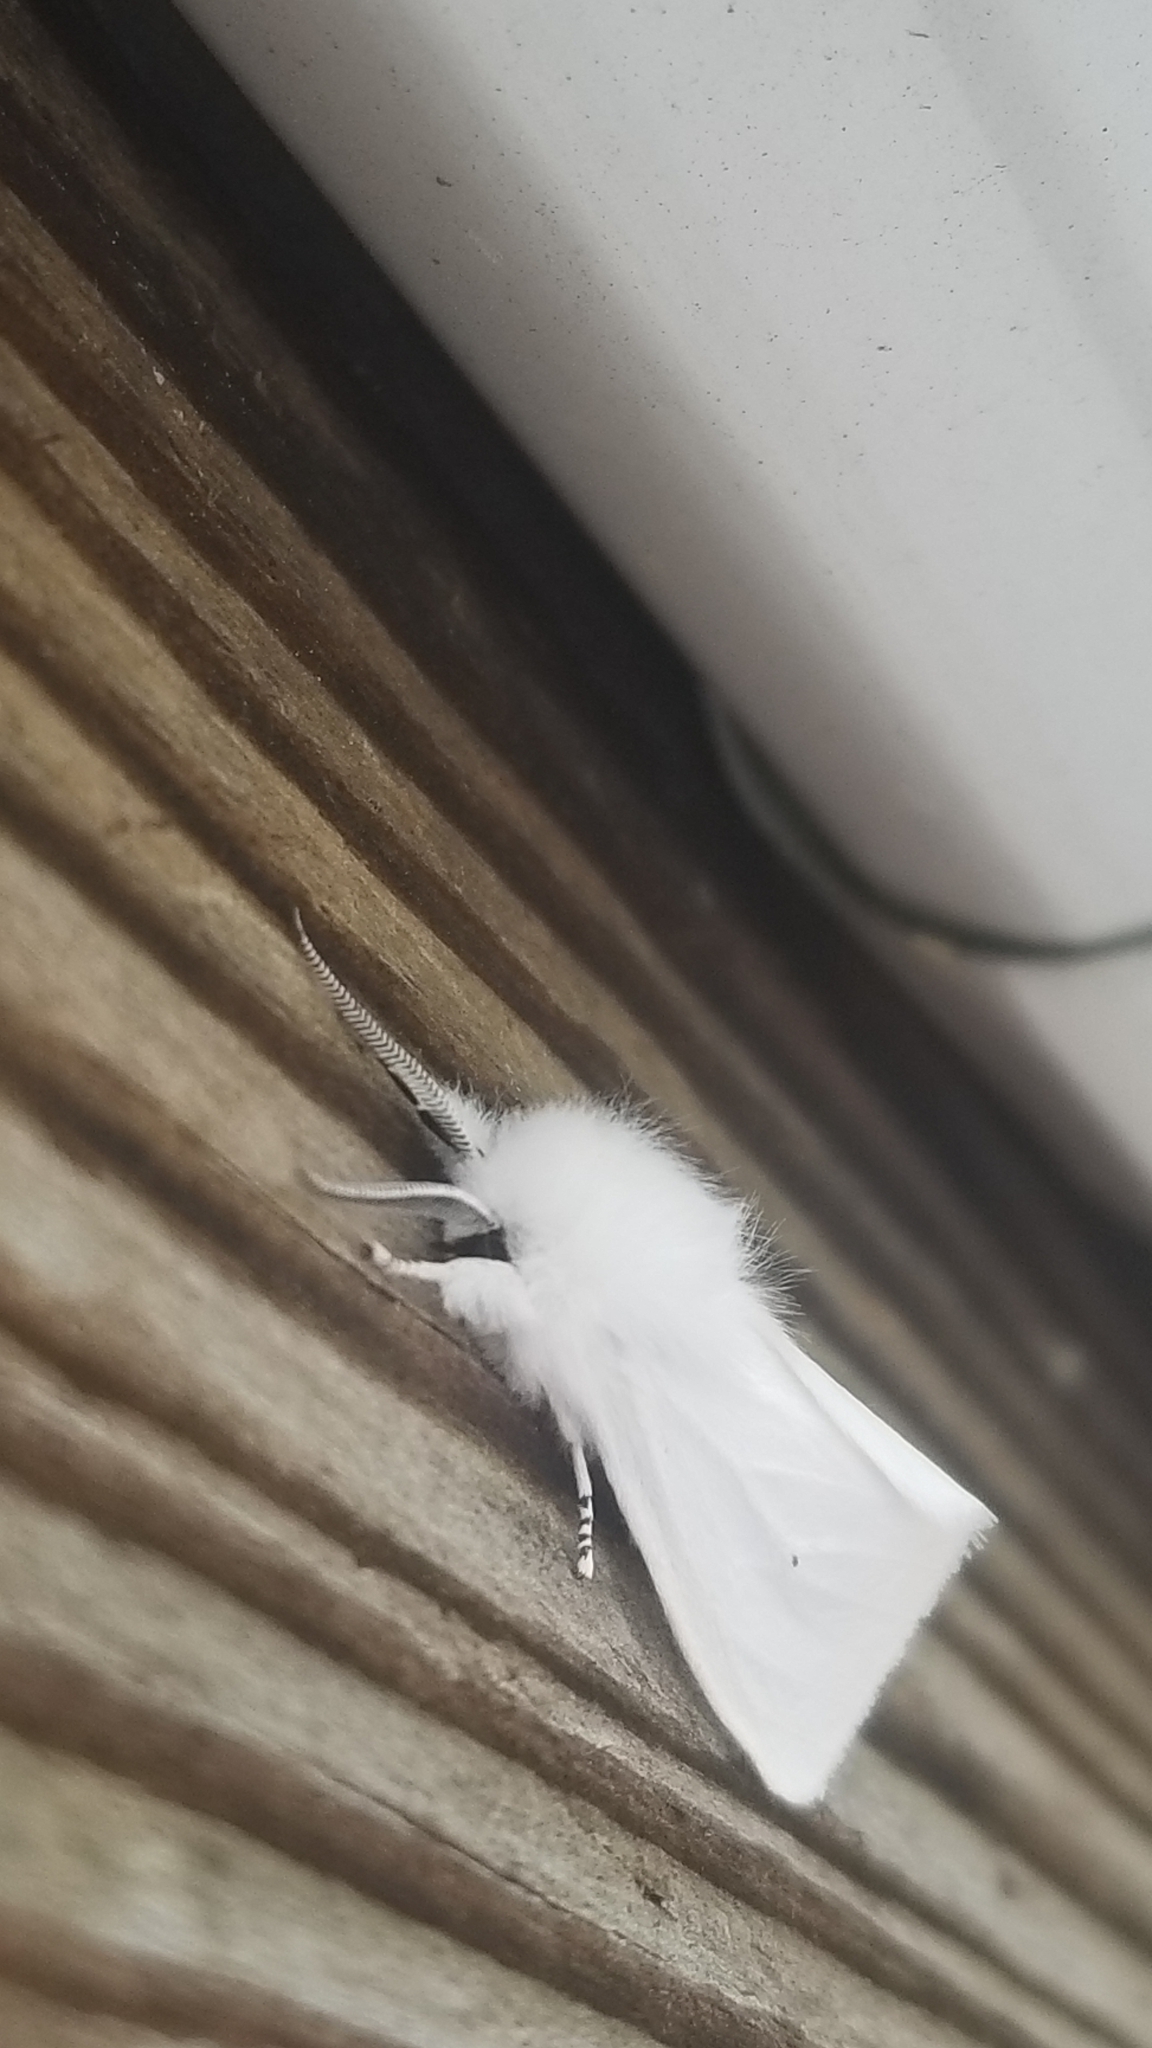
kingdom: Animalia
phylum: Arthropoda
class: Insecta
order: Lepidoptera
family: Erebidae
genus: Spilosoma
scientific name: Spilosoma virginica
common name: Virginia tiger moth
